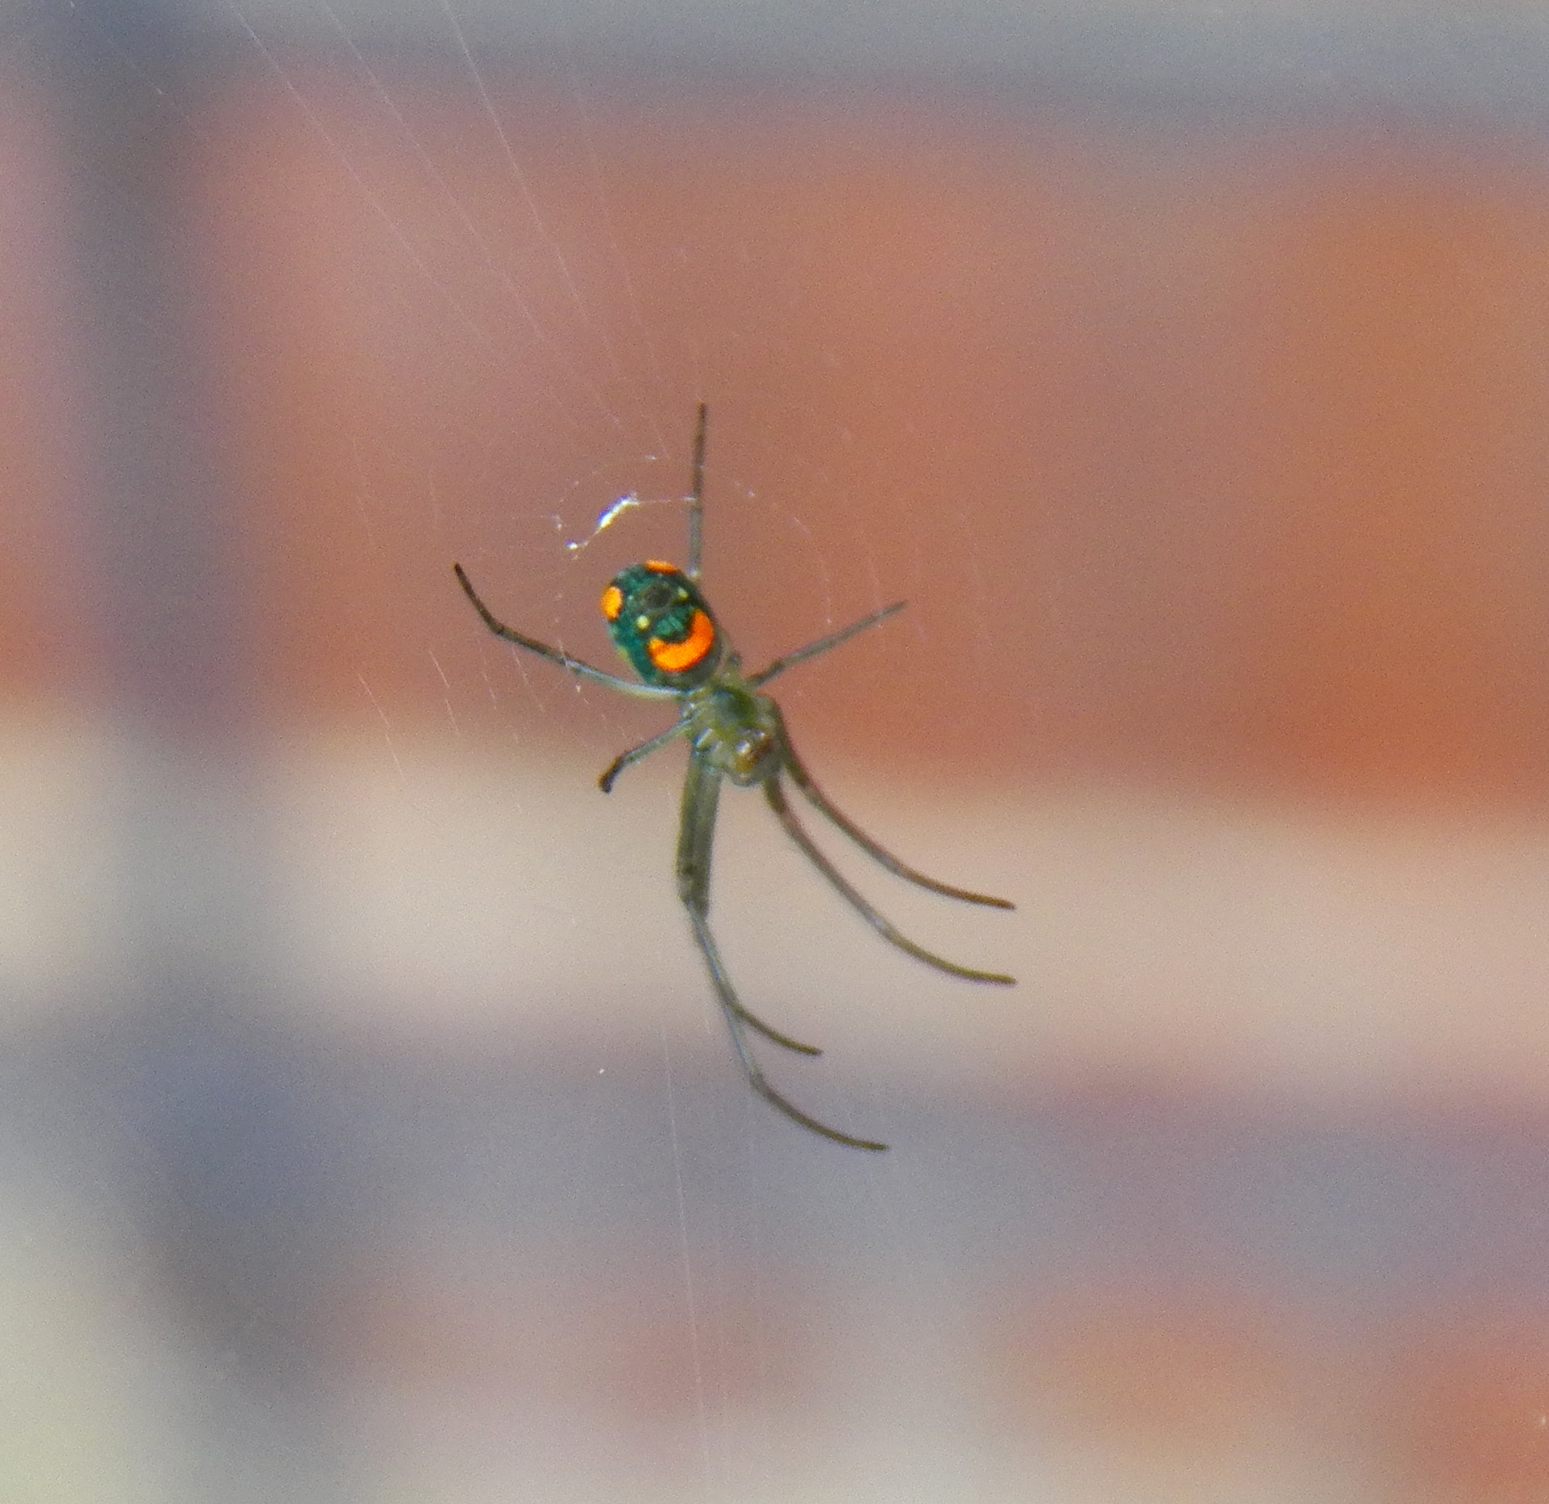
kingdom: Animalia
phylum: Arthropoda
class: Arachnida
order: Araneae
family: Tetragnathidae
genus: Leucauge
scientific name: Leucauge argyrobapta
